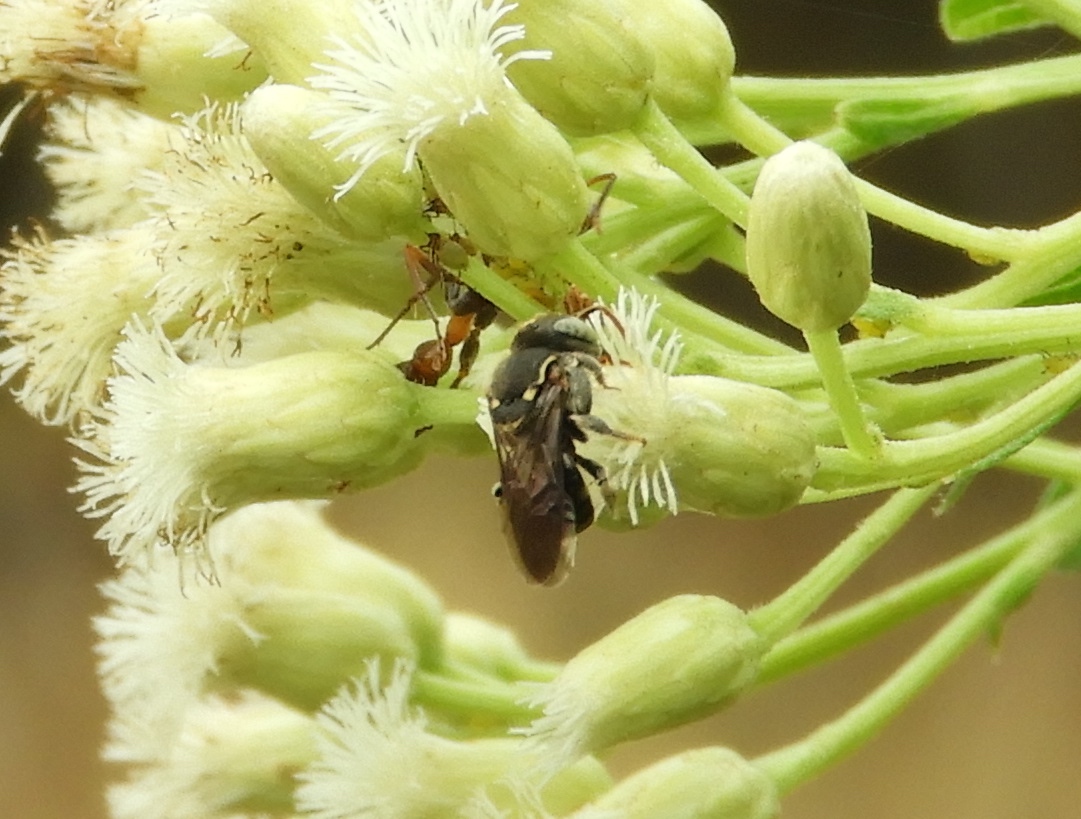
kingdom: Animalia
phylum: Arthropoda
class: Insecta
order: Hymenoptera
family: Apidae
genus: Nannotrigona
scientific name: Nannotrigona perilampoides
